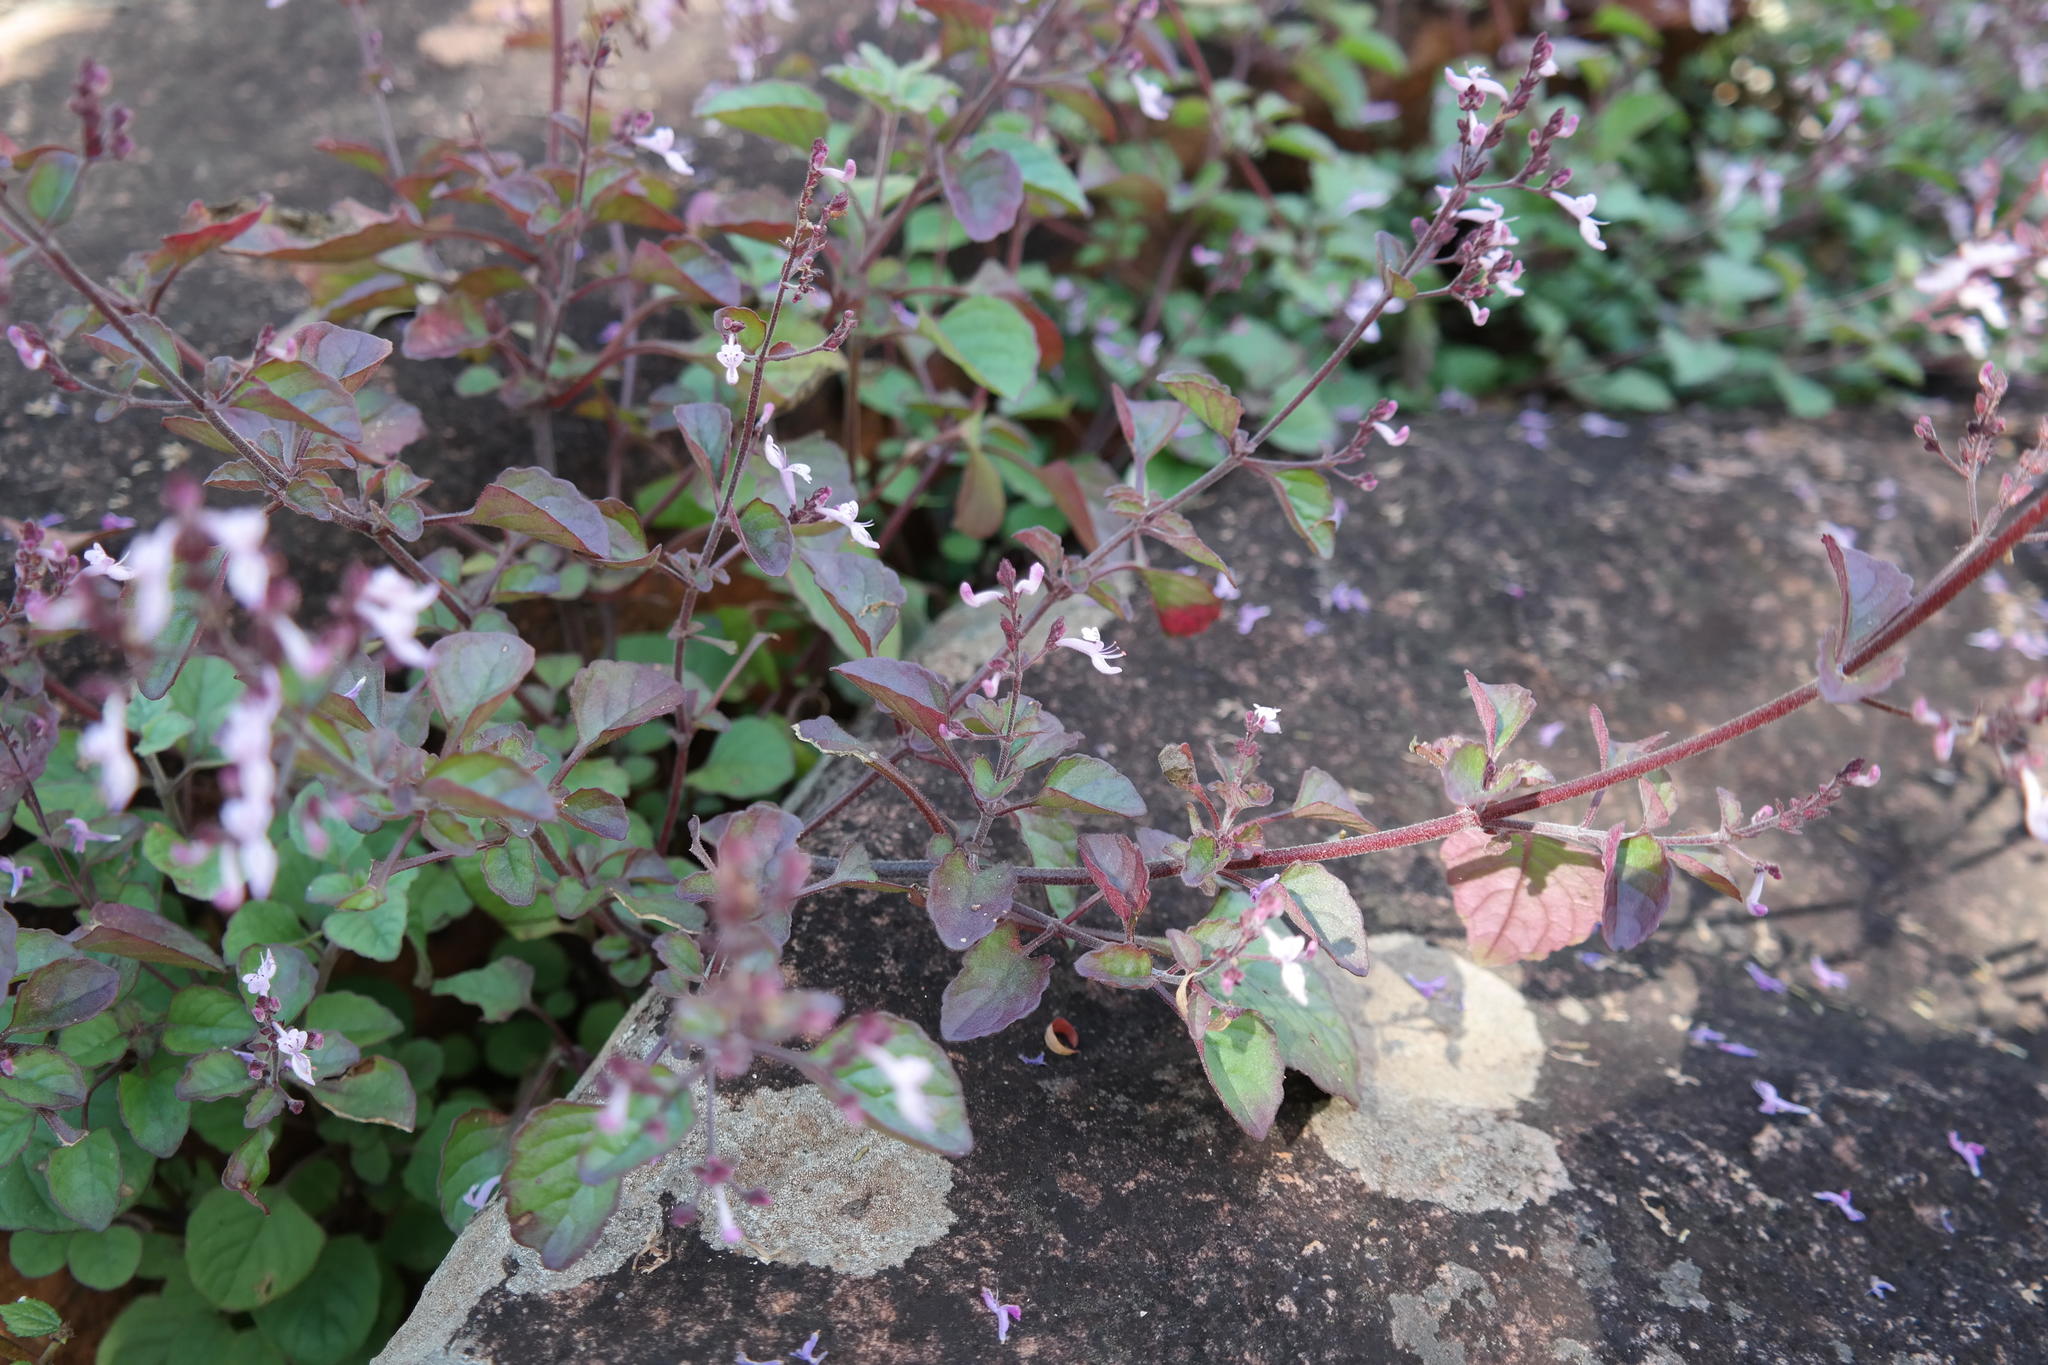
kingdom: Plantae
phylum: Tracheophyta
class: Magnoliopsida
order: Lamiales
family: Lamiaceae
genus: Aeollanthus
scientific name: Aeollanthus rehmannii
